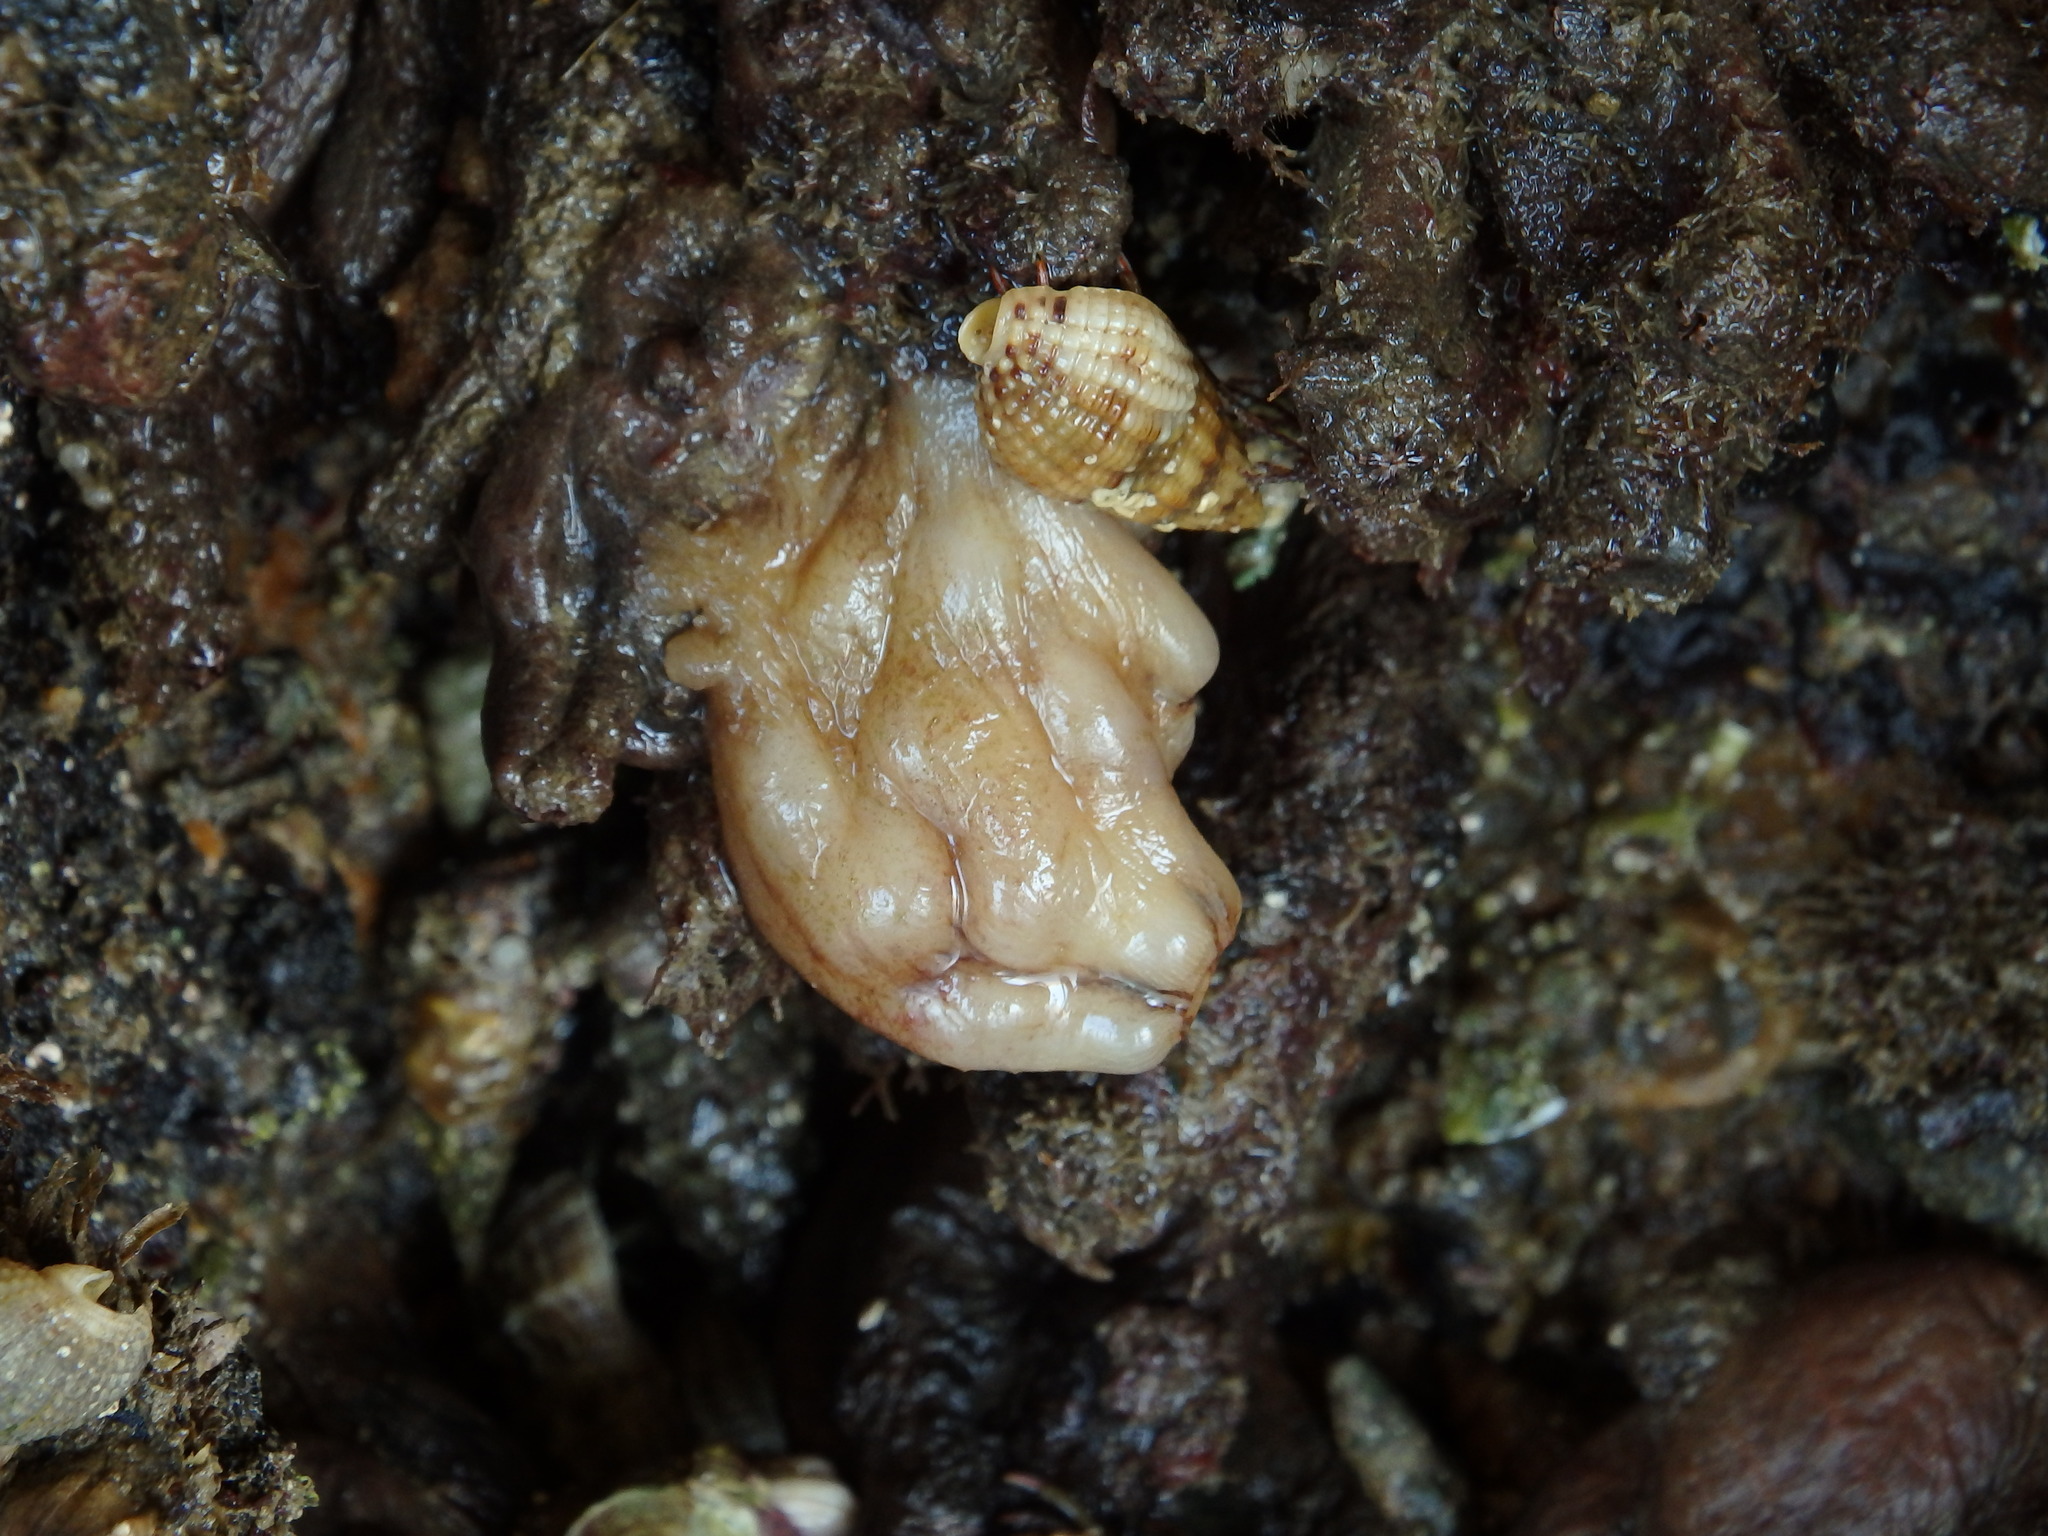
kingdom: Animalia
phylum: Chordata
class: Ascidiacea
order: Stolidobranchia
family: Styelidae
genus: Styela
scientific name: Styela plicata
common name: Pleated tunicate
